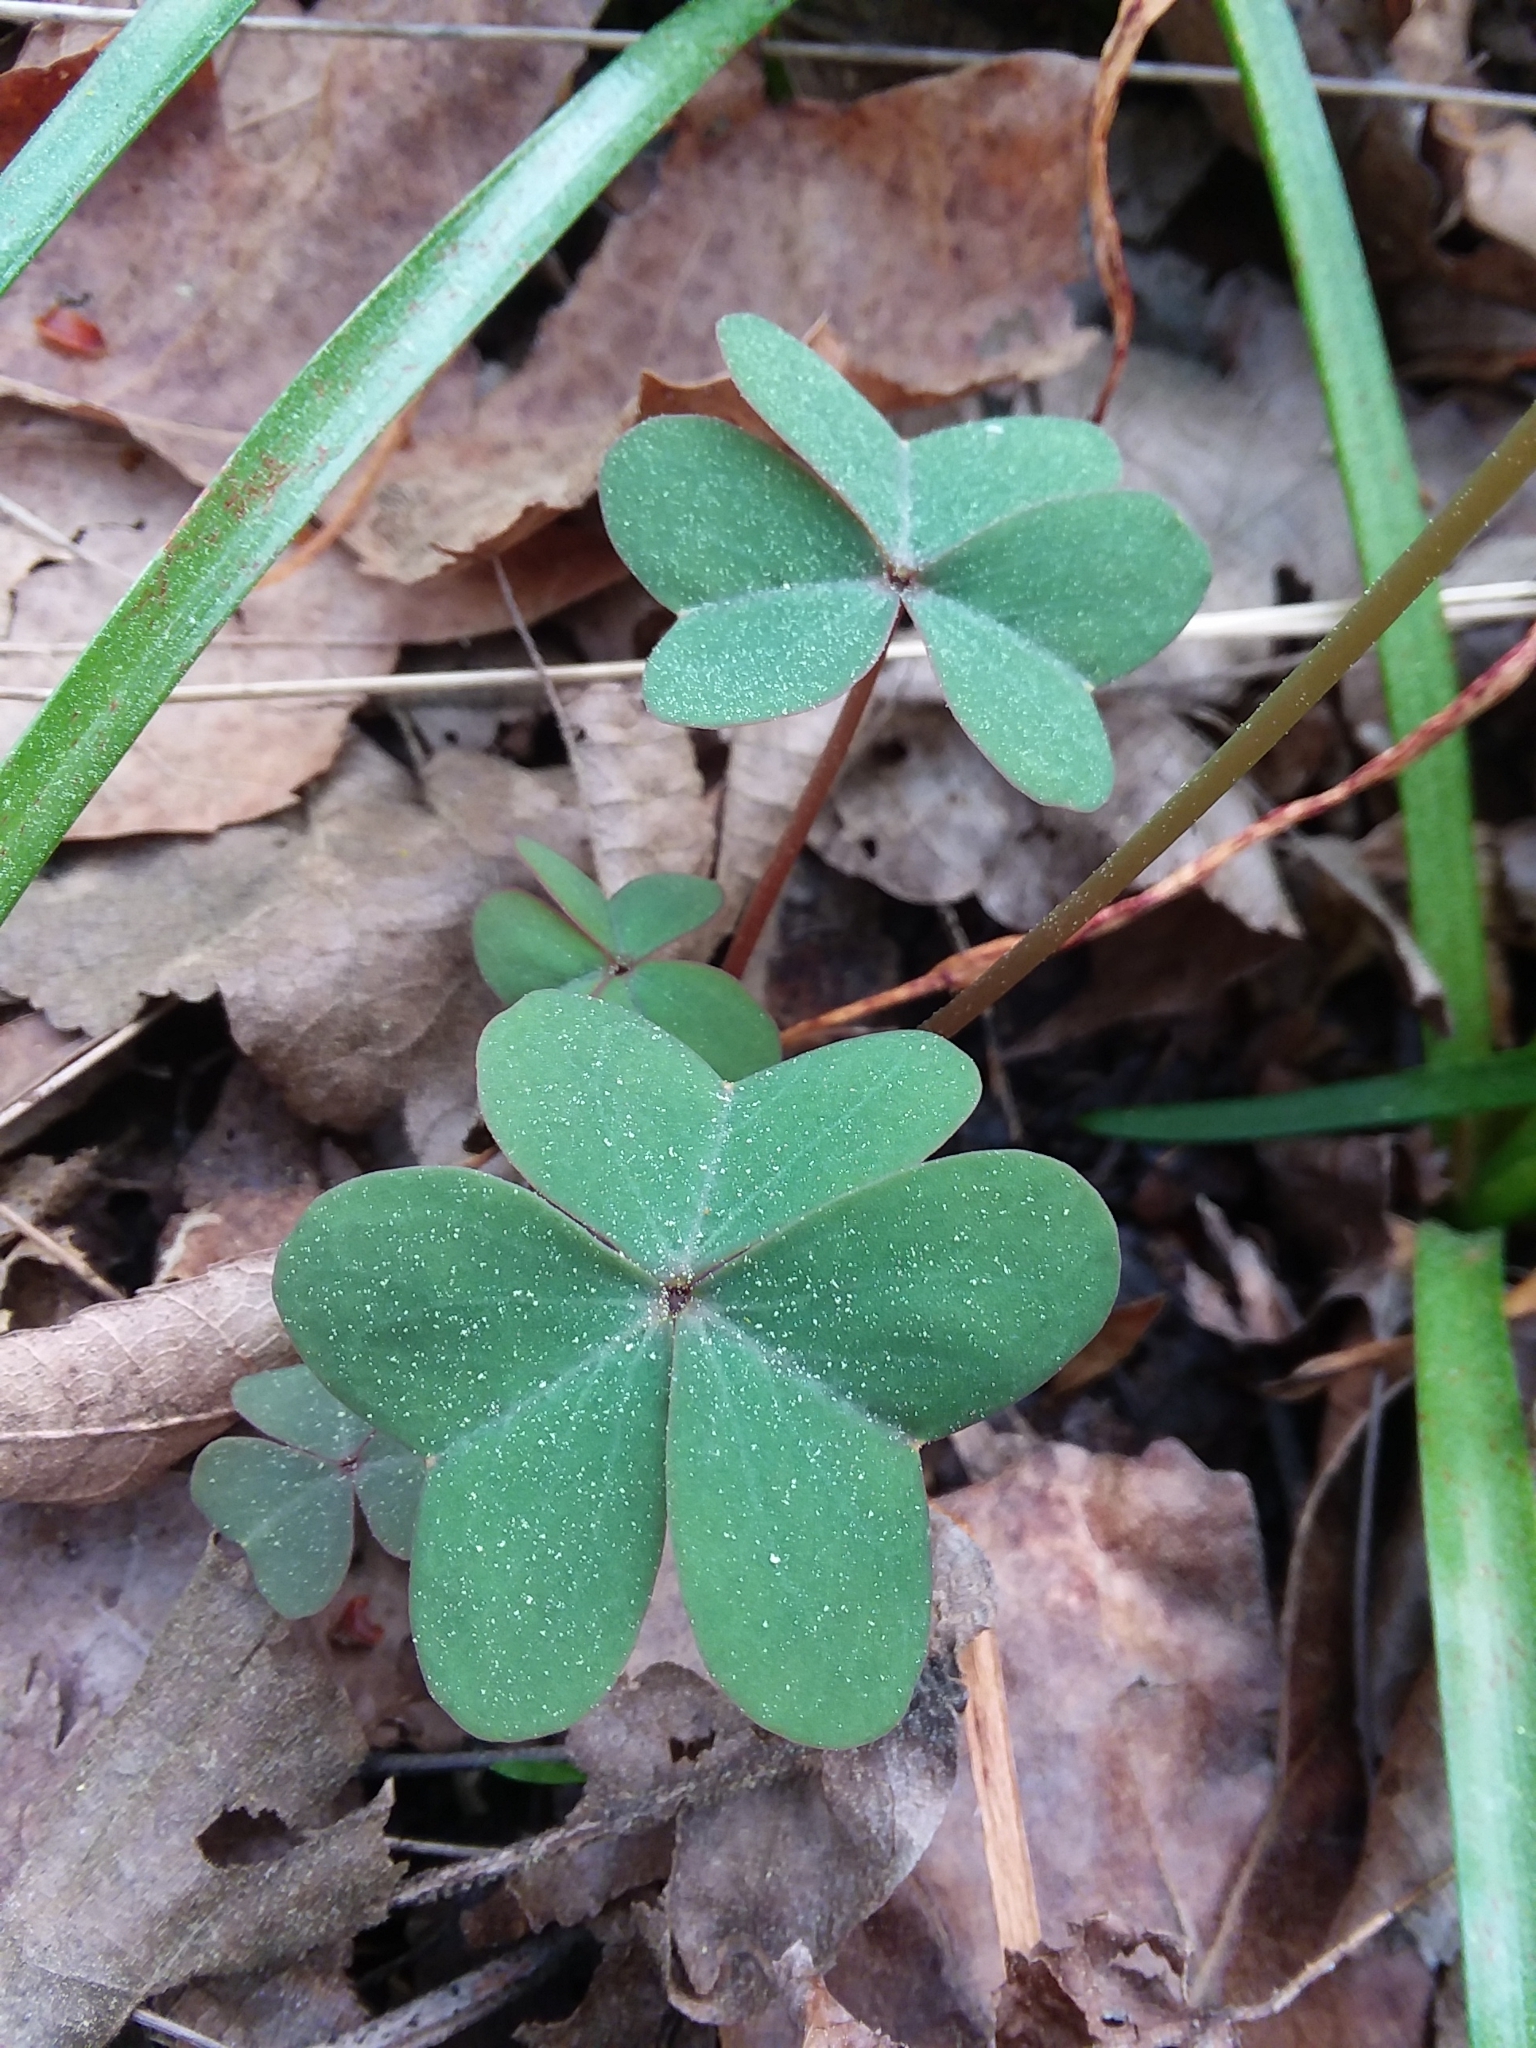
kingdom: Plantae
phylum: Tracheophyta
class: Magnoliopsida
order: Oxalidales
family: Oxalidaceae
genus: Oxalis
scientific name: Oxalis violacea
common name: Violet wood-sorrel
